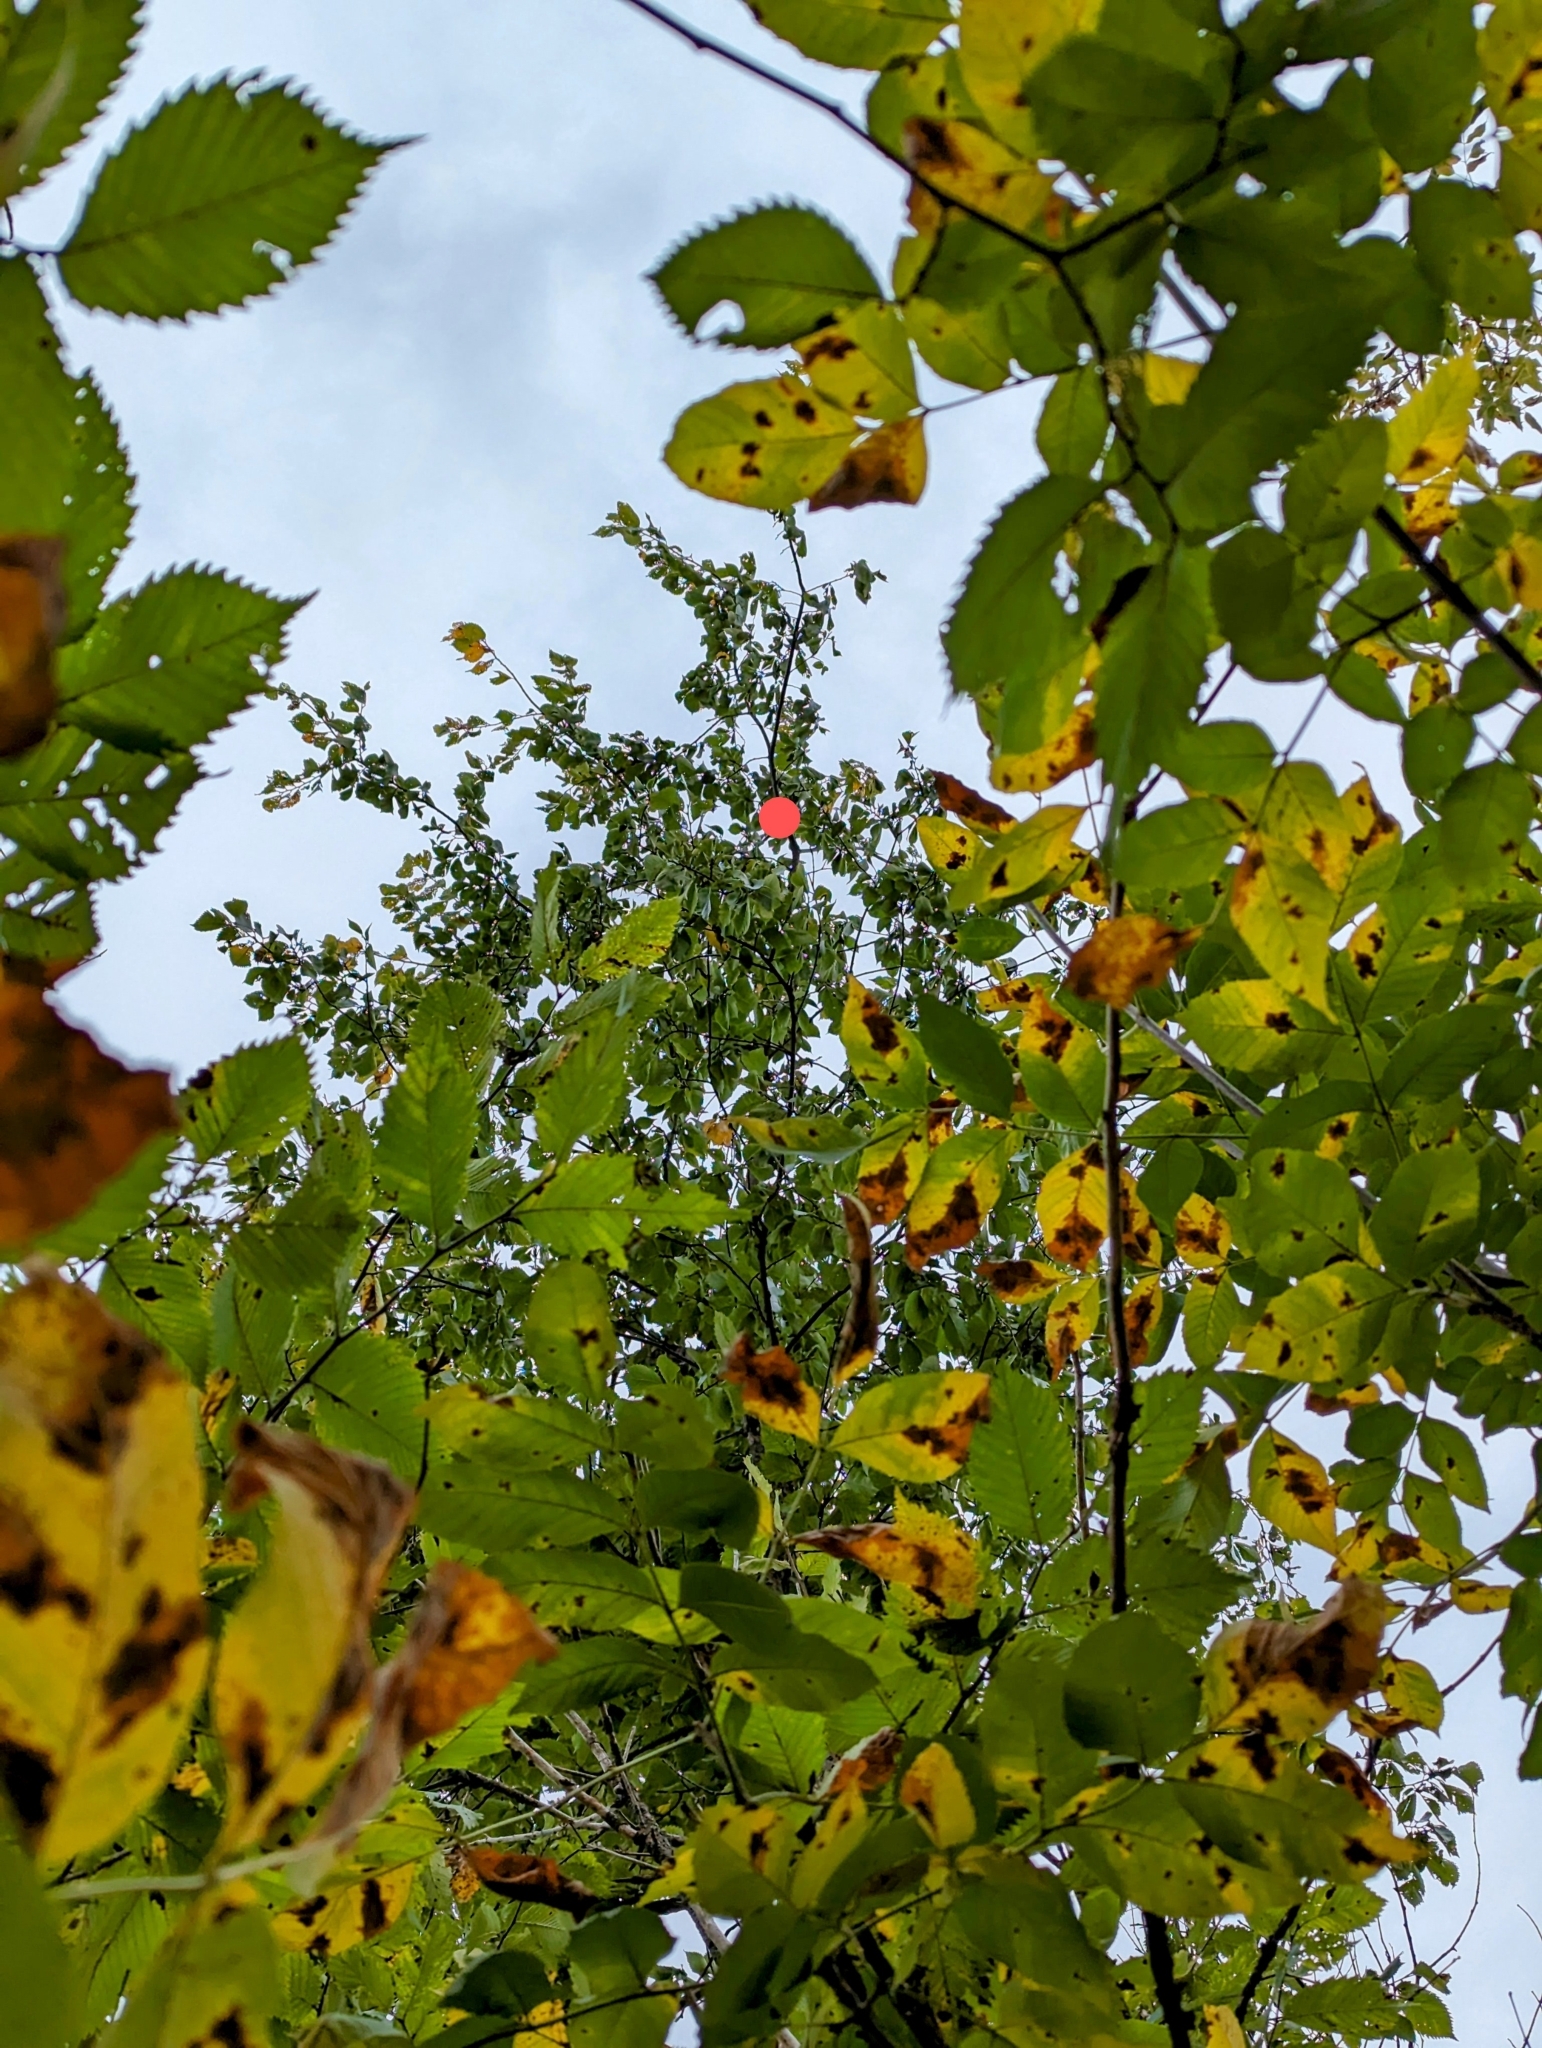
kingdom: Plantae
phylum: Tracheophyta
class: Magnoliopsida
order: Rosales
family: Ulmaceae
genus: Ulmus
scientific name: Ulmus americana
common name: American elm
